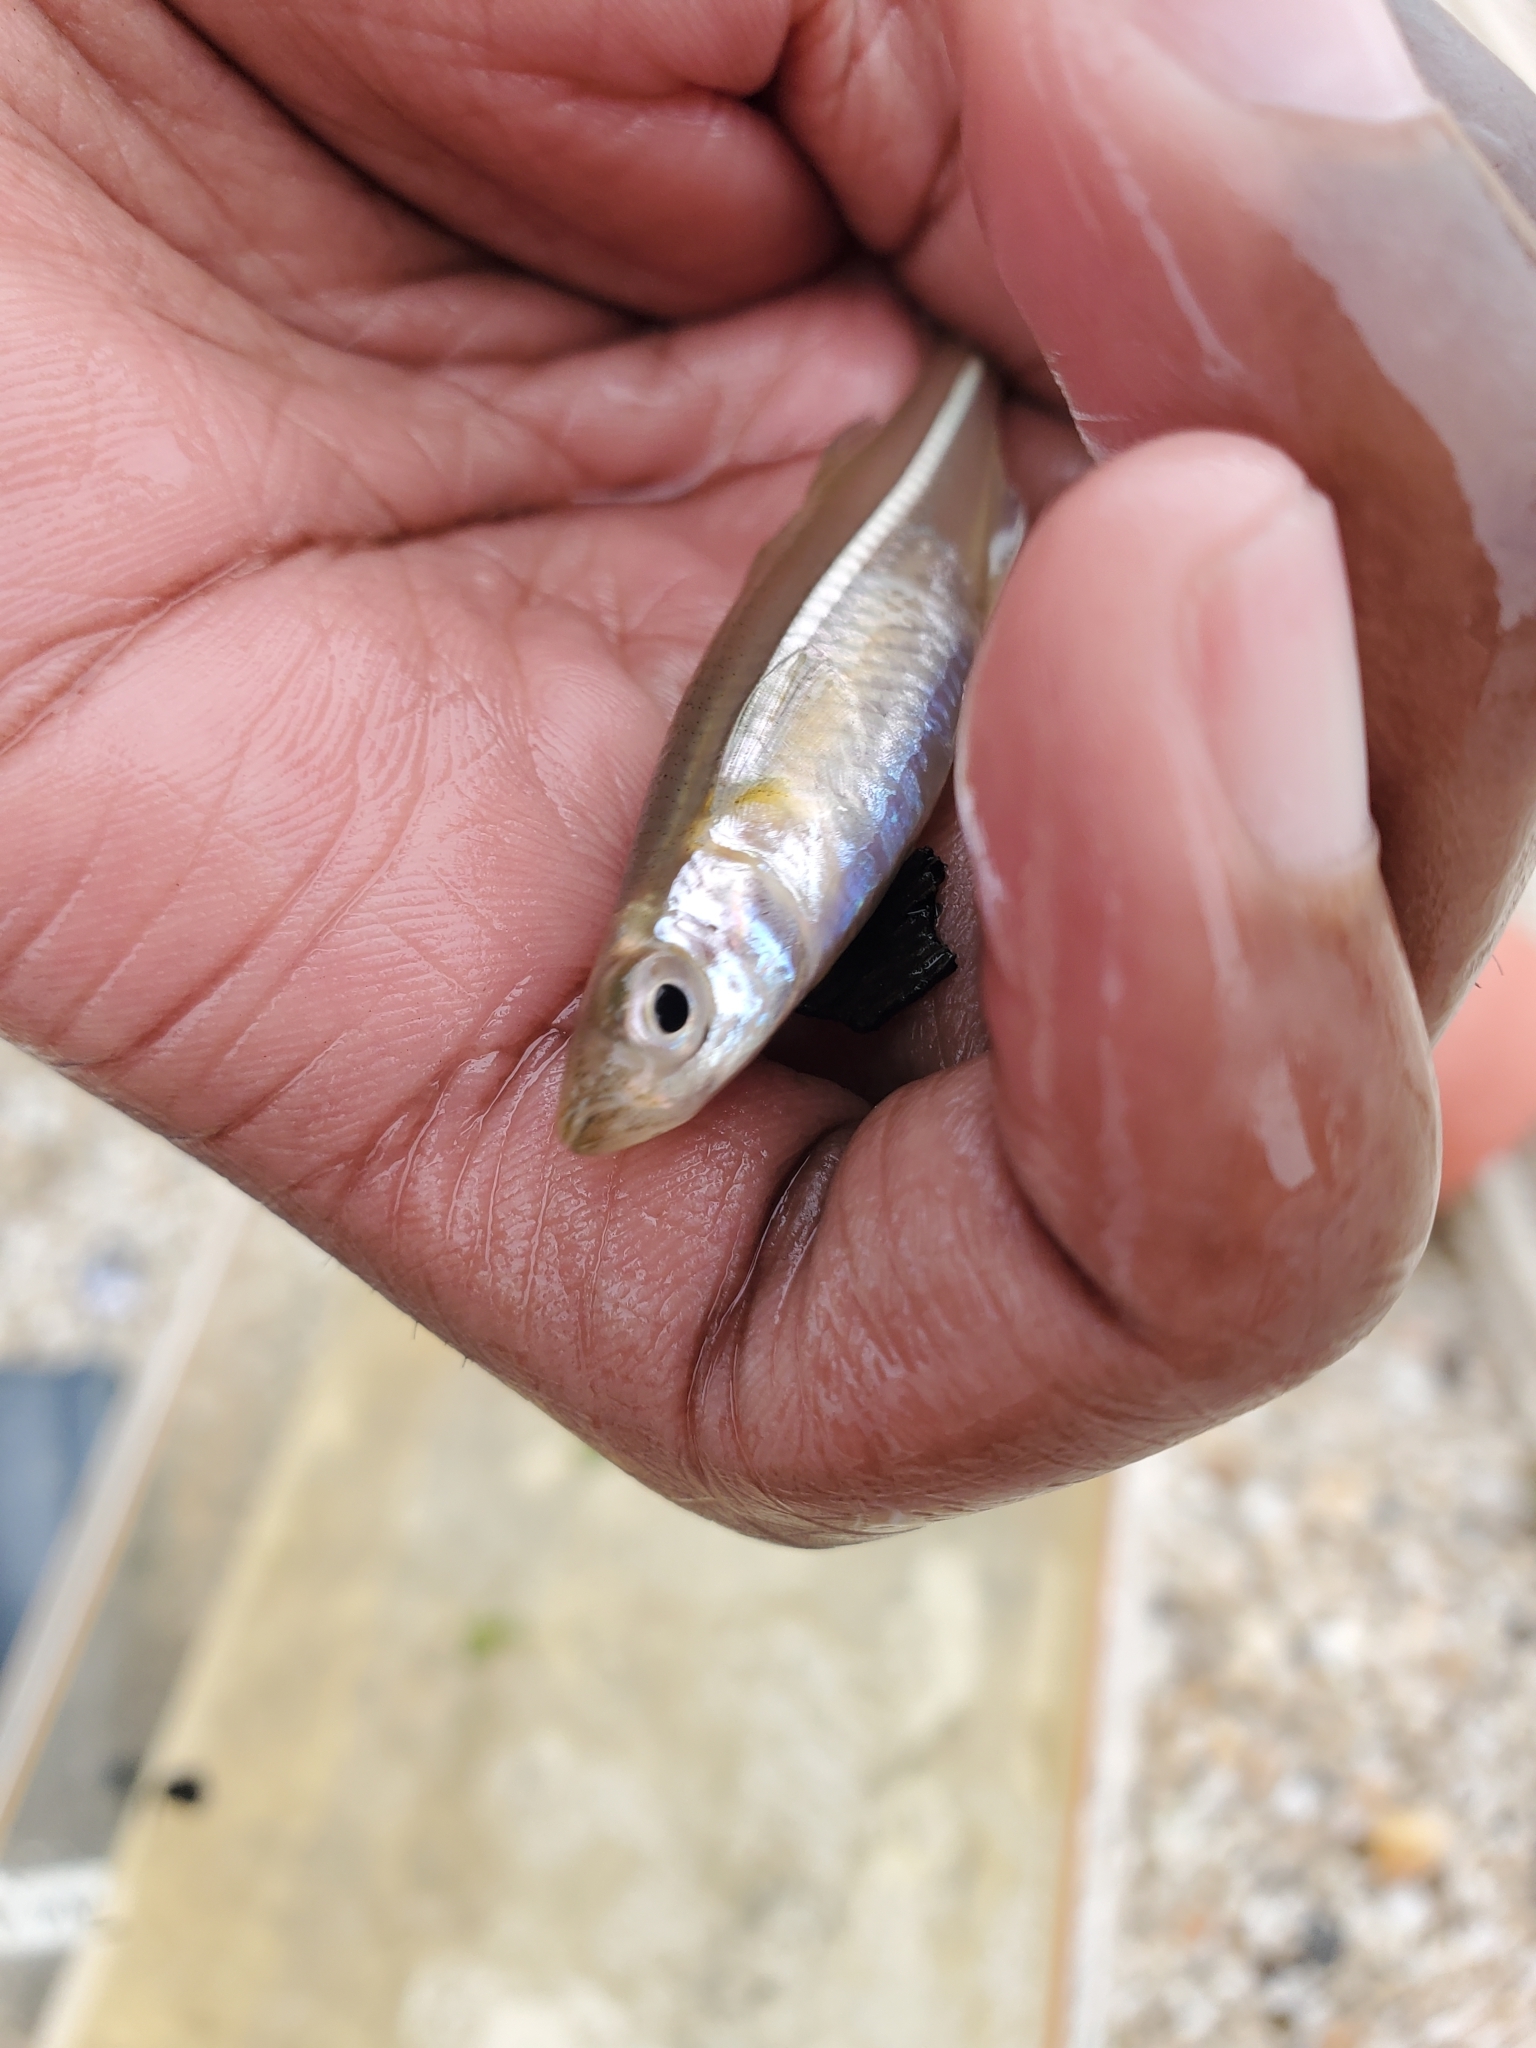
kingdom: Animalia
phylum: Chordata
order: Atheriniformes
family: Atherinopsidae
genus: Menidia
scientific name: Menidia menidia
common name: Atlantic silverside
